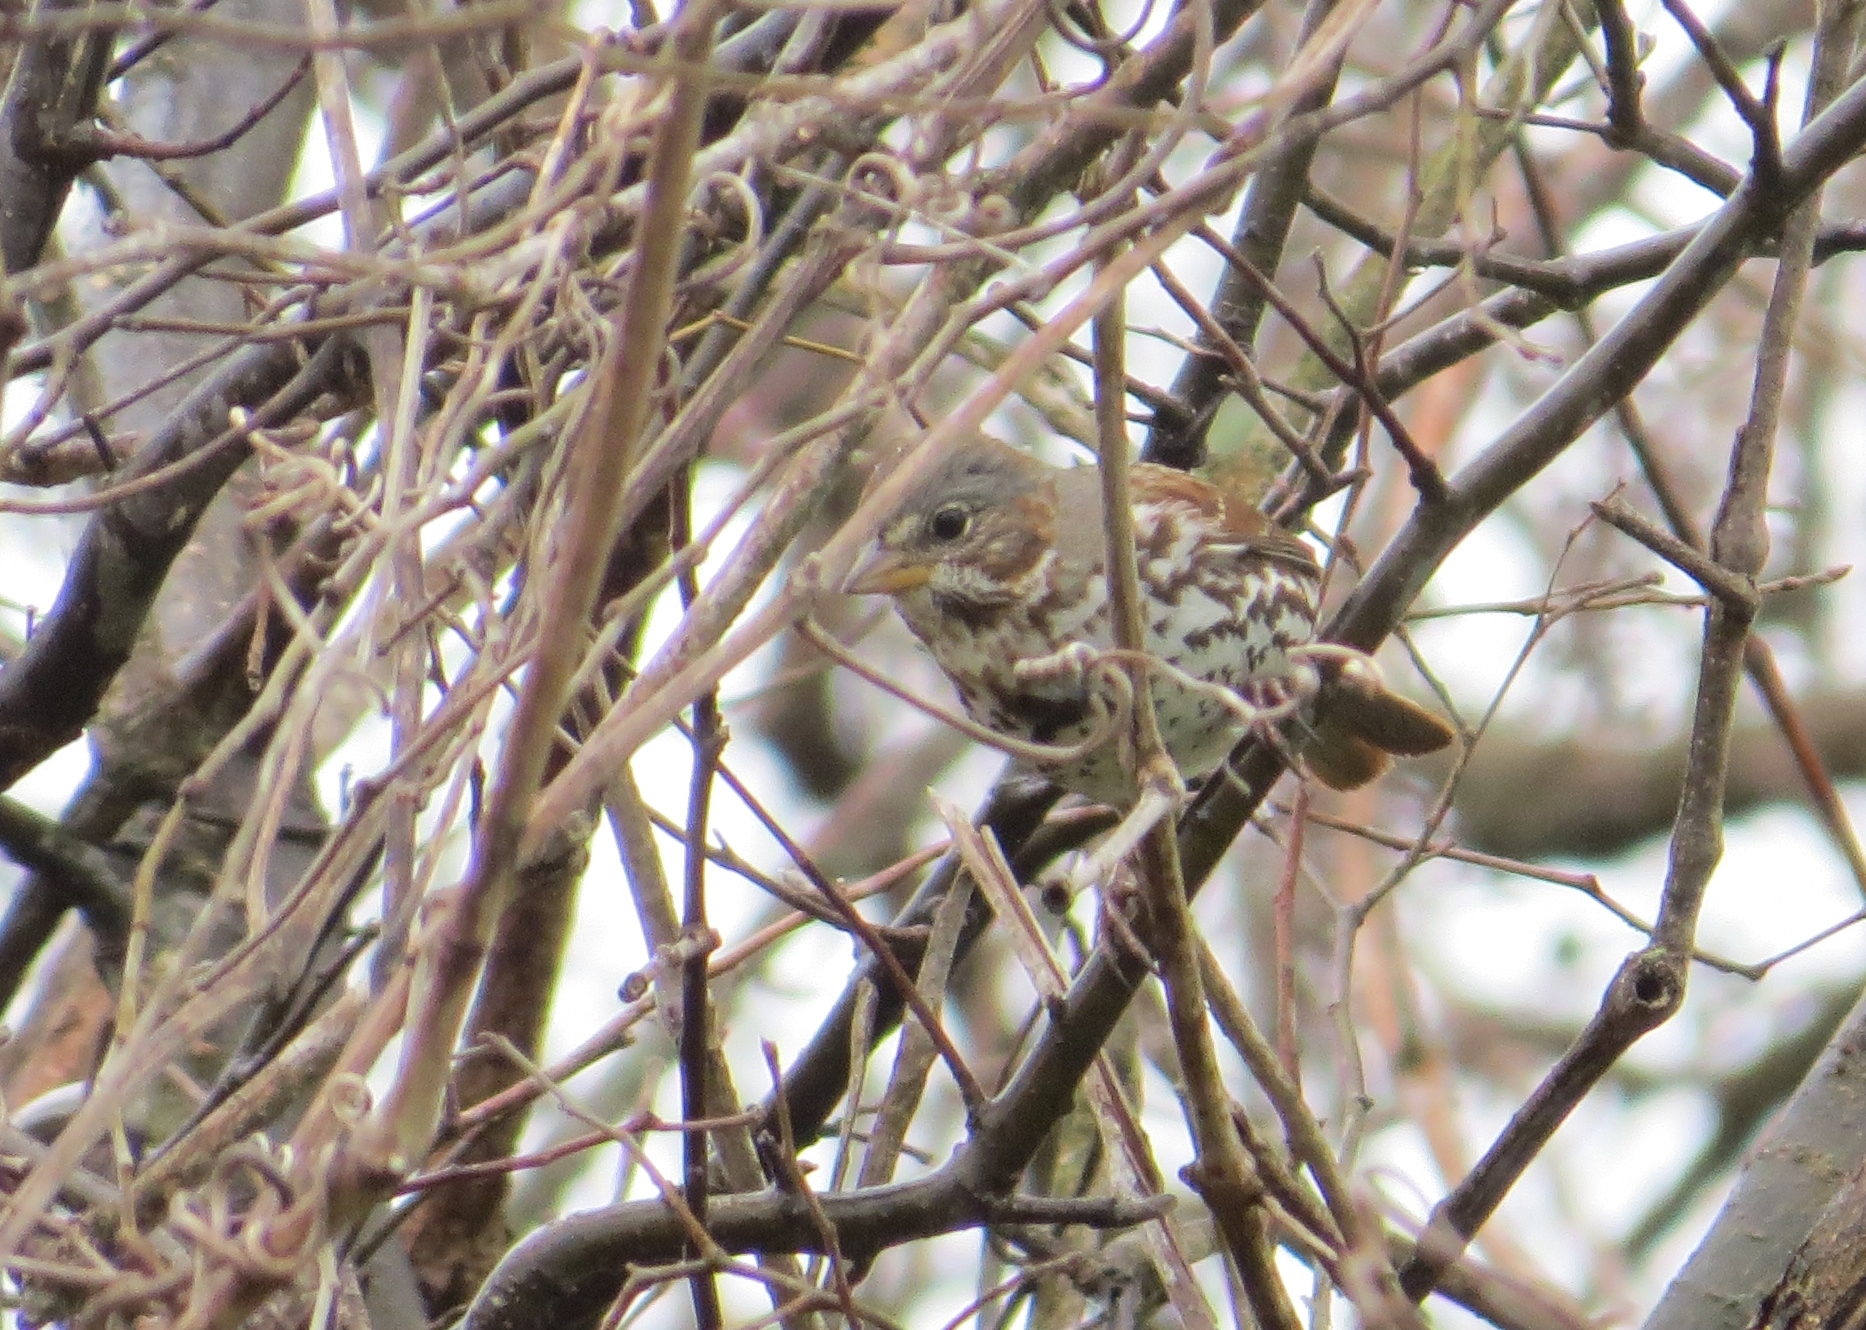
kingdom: Animalia
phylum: Chordata
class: Aves
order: Passeriformes
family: Passerellidae
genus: Passerella
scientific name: Passerella iliaca
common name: Fox sparrow
